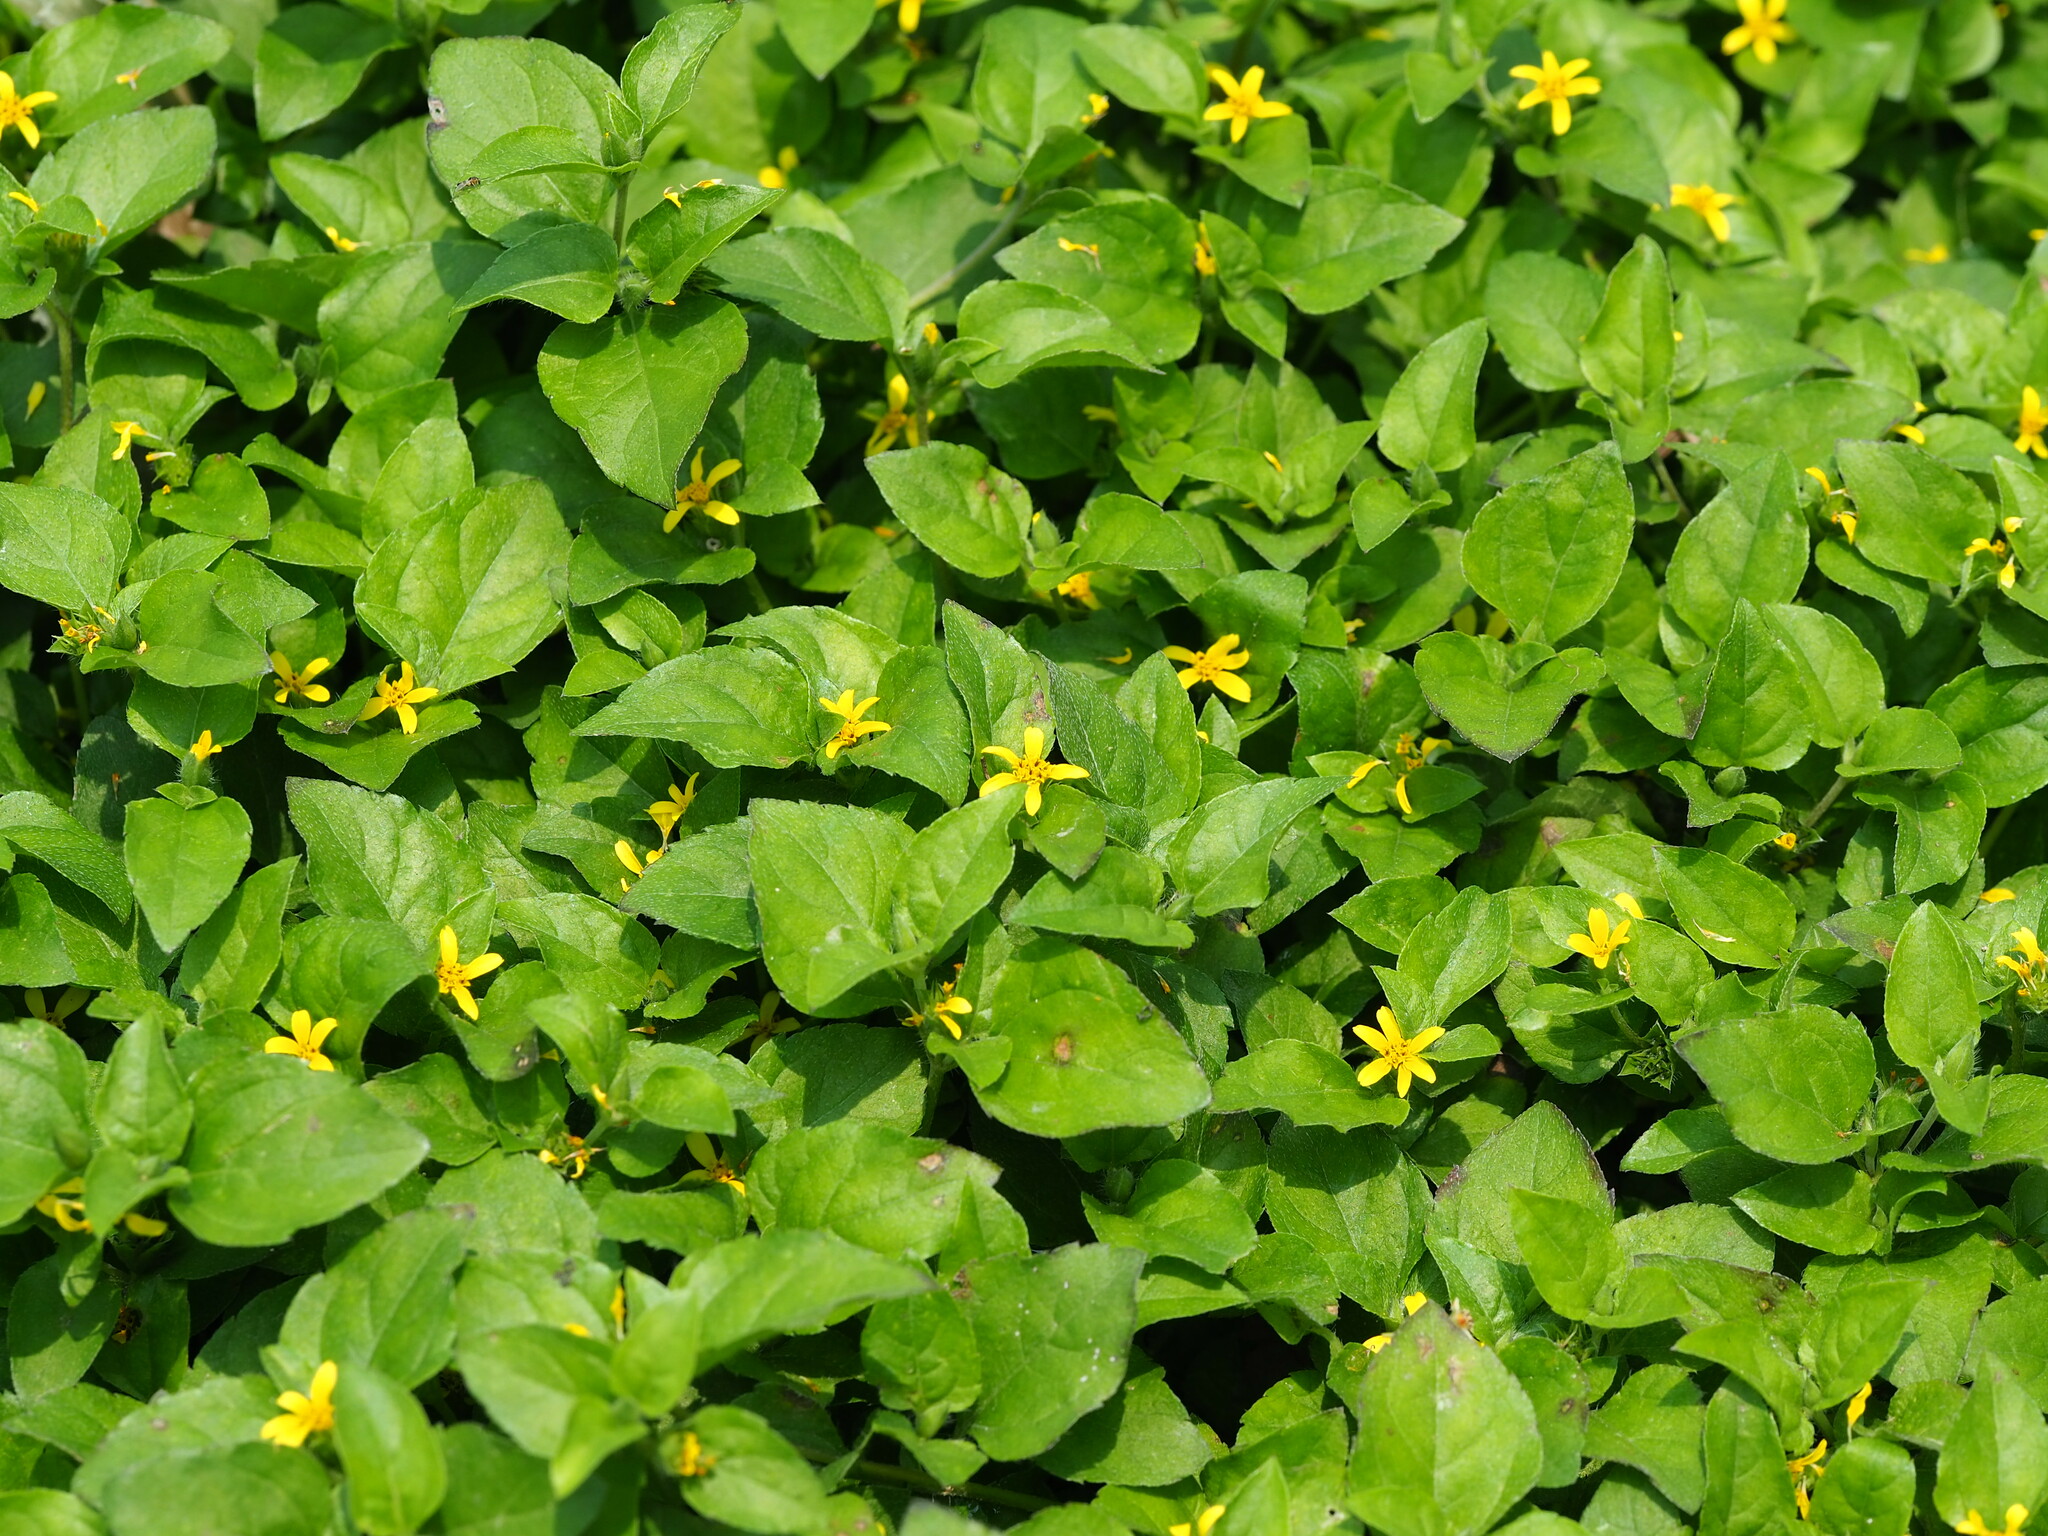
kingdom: Plantae
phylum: Tracheophyta
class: Magnoliopsida
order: Asterales
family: Asteraceae
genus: Calyptocarpus
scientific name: Calyptocarpus vialis
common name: Straggler daisy
